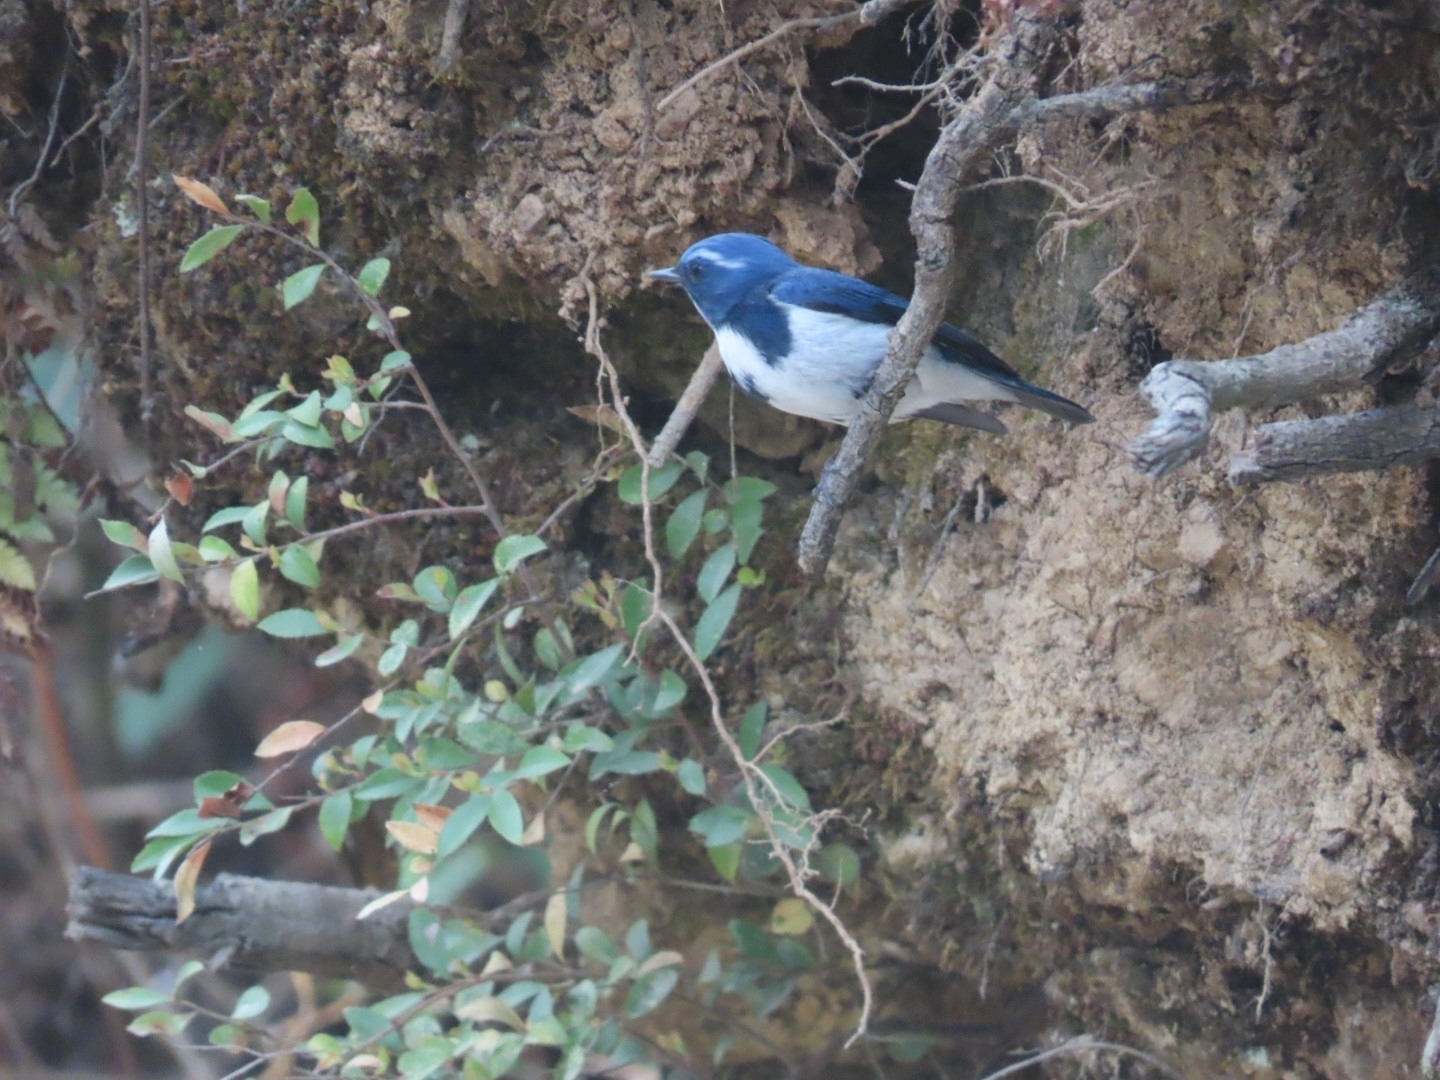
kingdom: Animalia
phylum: Chordata
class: Aves
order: Passeriformes
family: Muscicapidae
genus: Ficedula
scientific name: Ficedula superciliaris
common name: Ultramarine flycatcher
